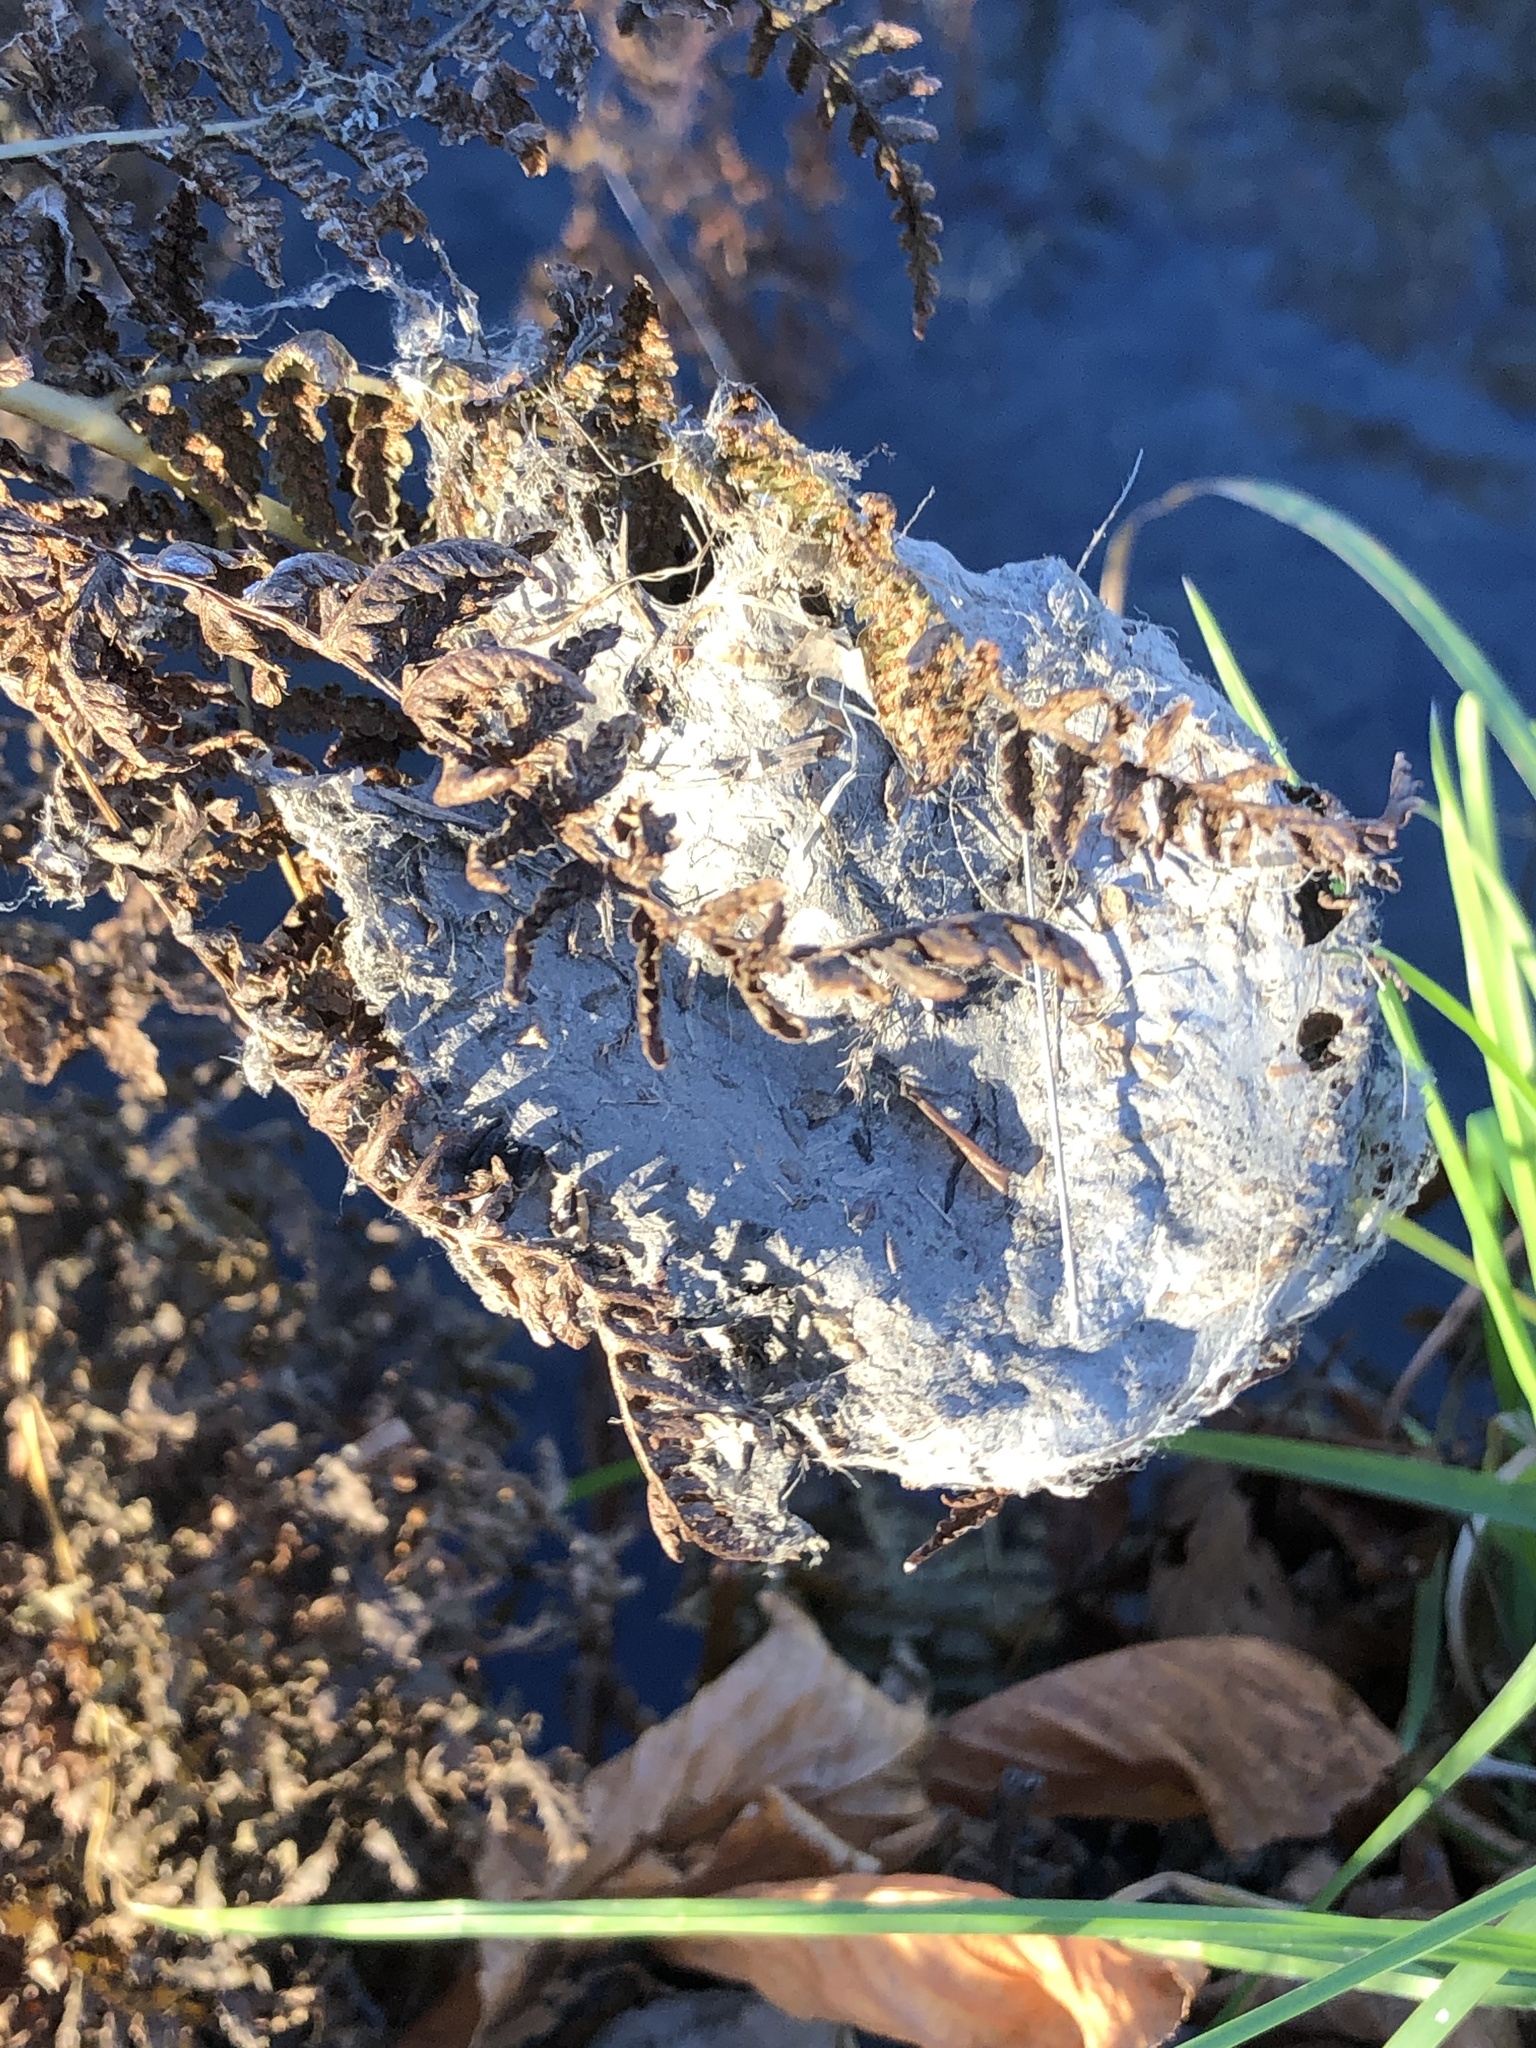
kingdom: Animalia
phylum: Arthropoda
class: Arachnida
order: Araneae
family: Pisauridae
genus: Dolomedes
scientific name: Dolomedes minor
